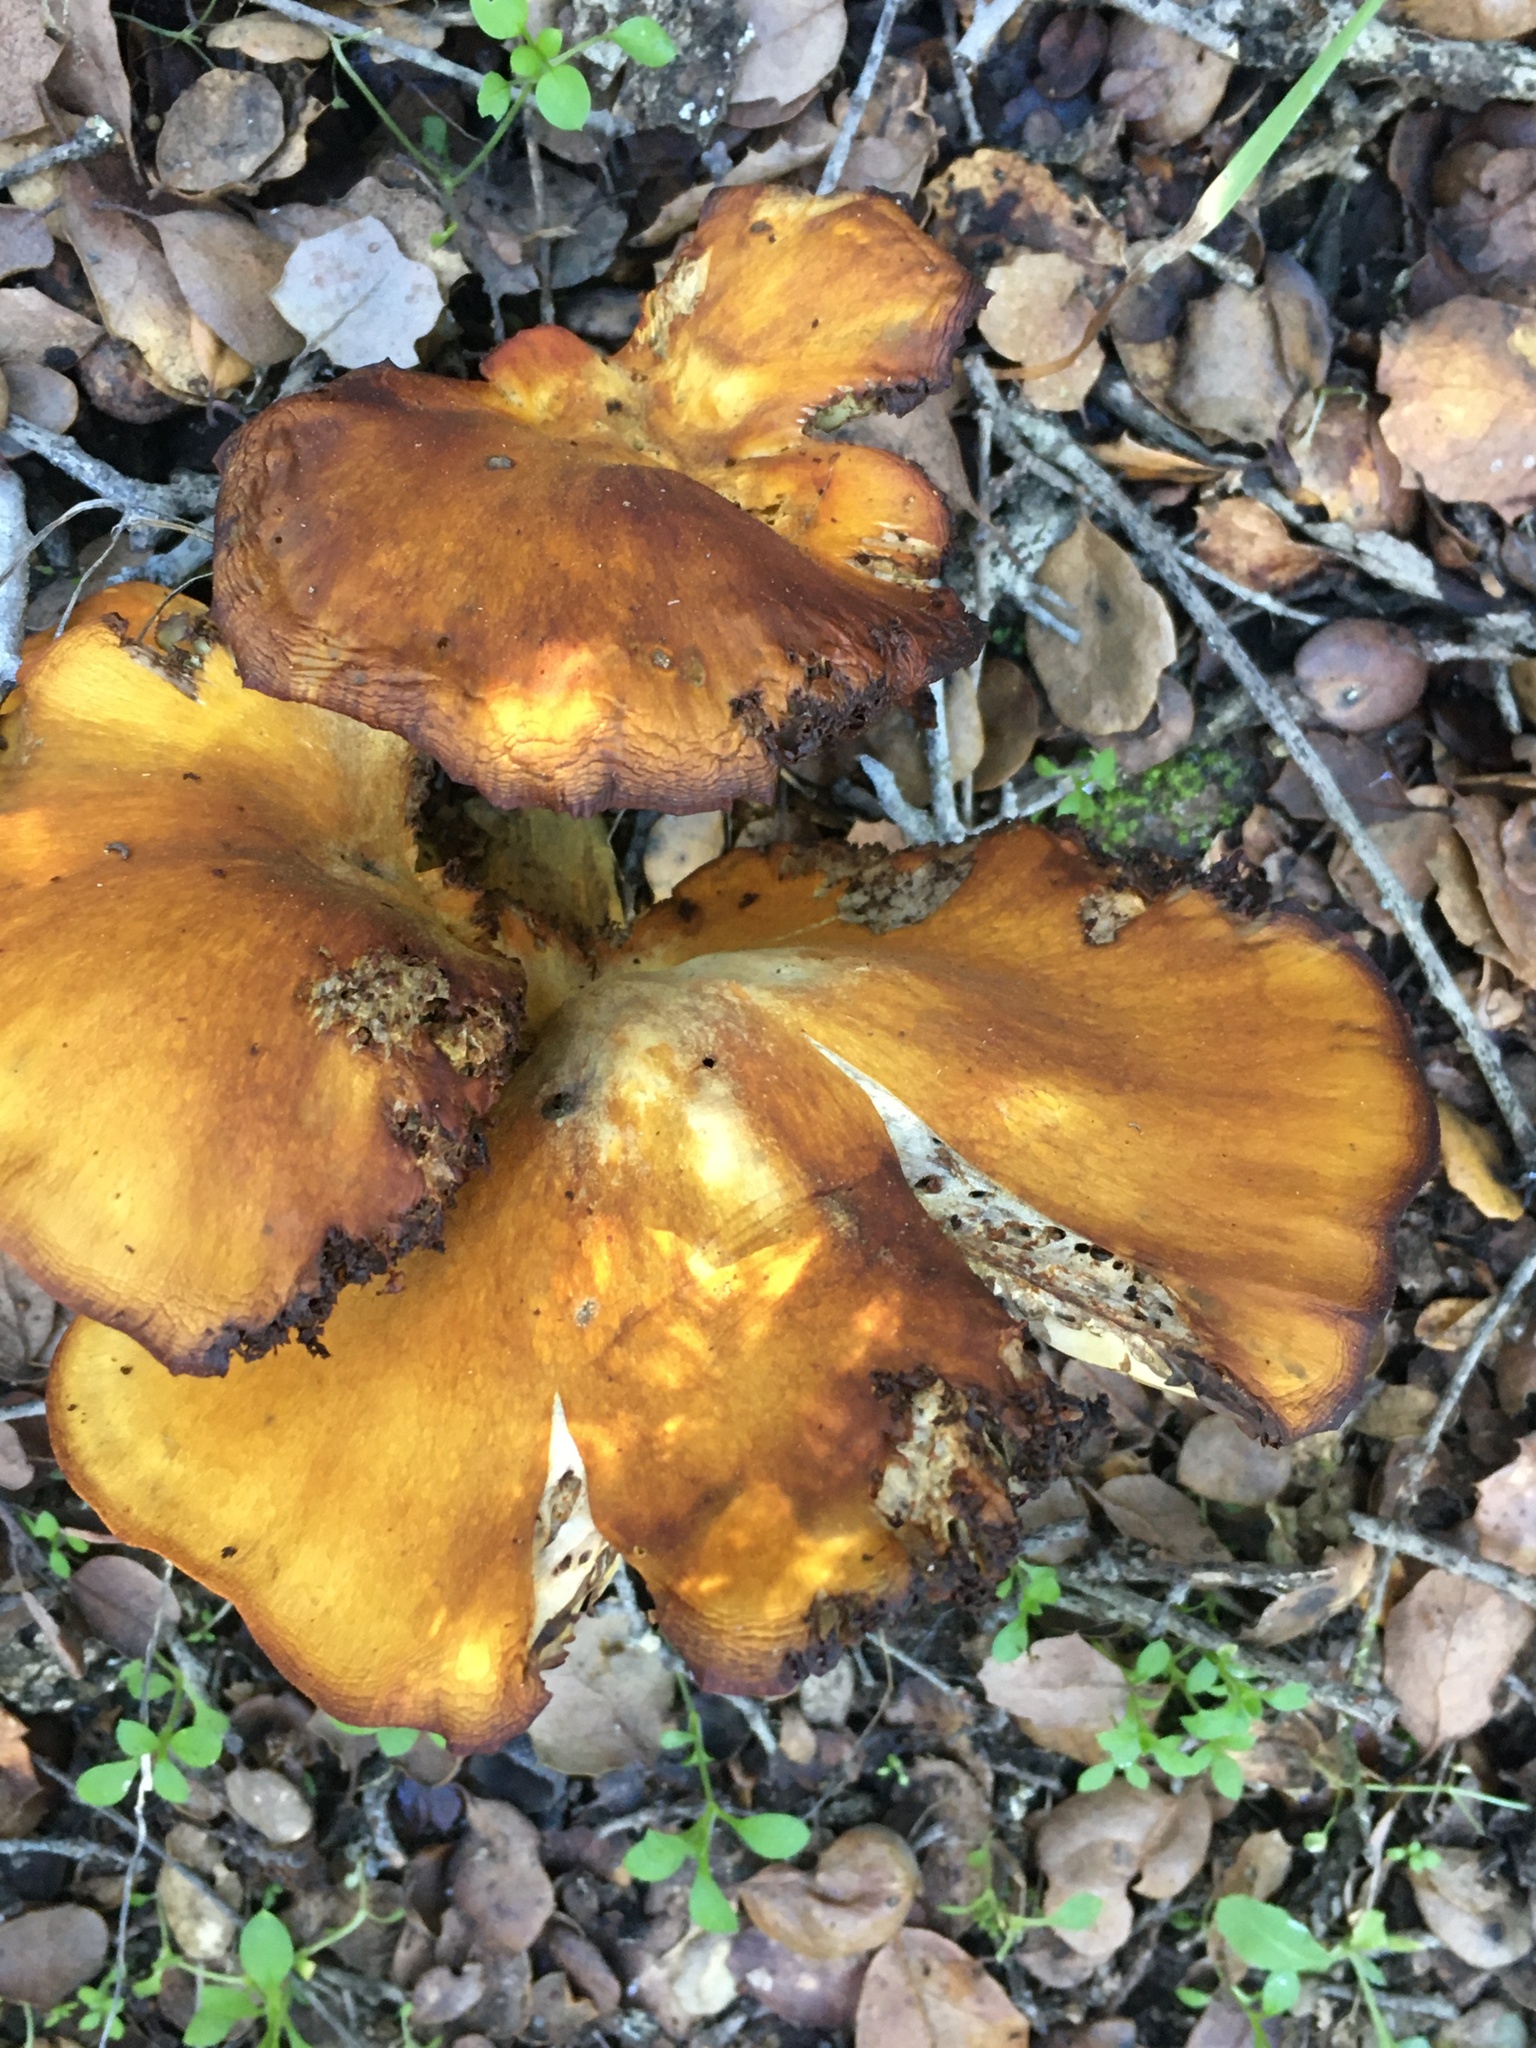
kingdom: Fungi
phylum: Basidiomycota
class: Agaricomycetes
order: Agaricales
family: Omphalotaceae
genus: Omphalotus
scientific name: Omphalotus olivascens
